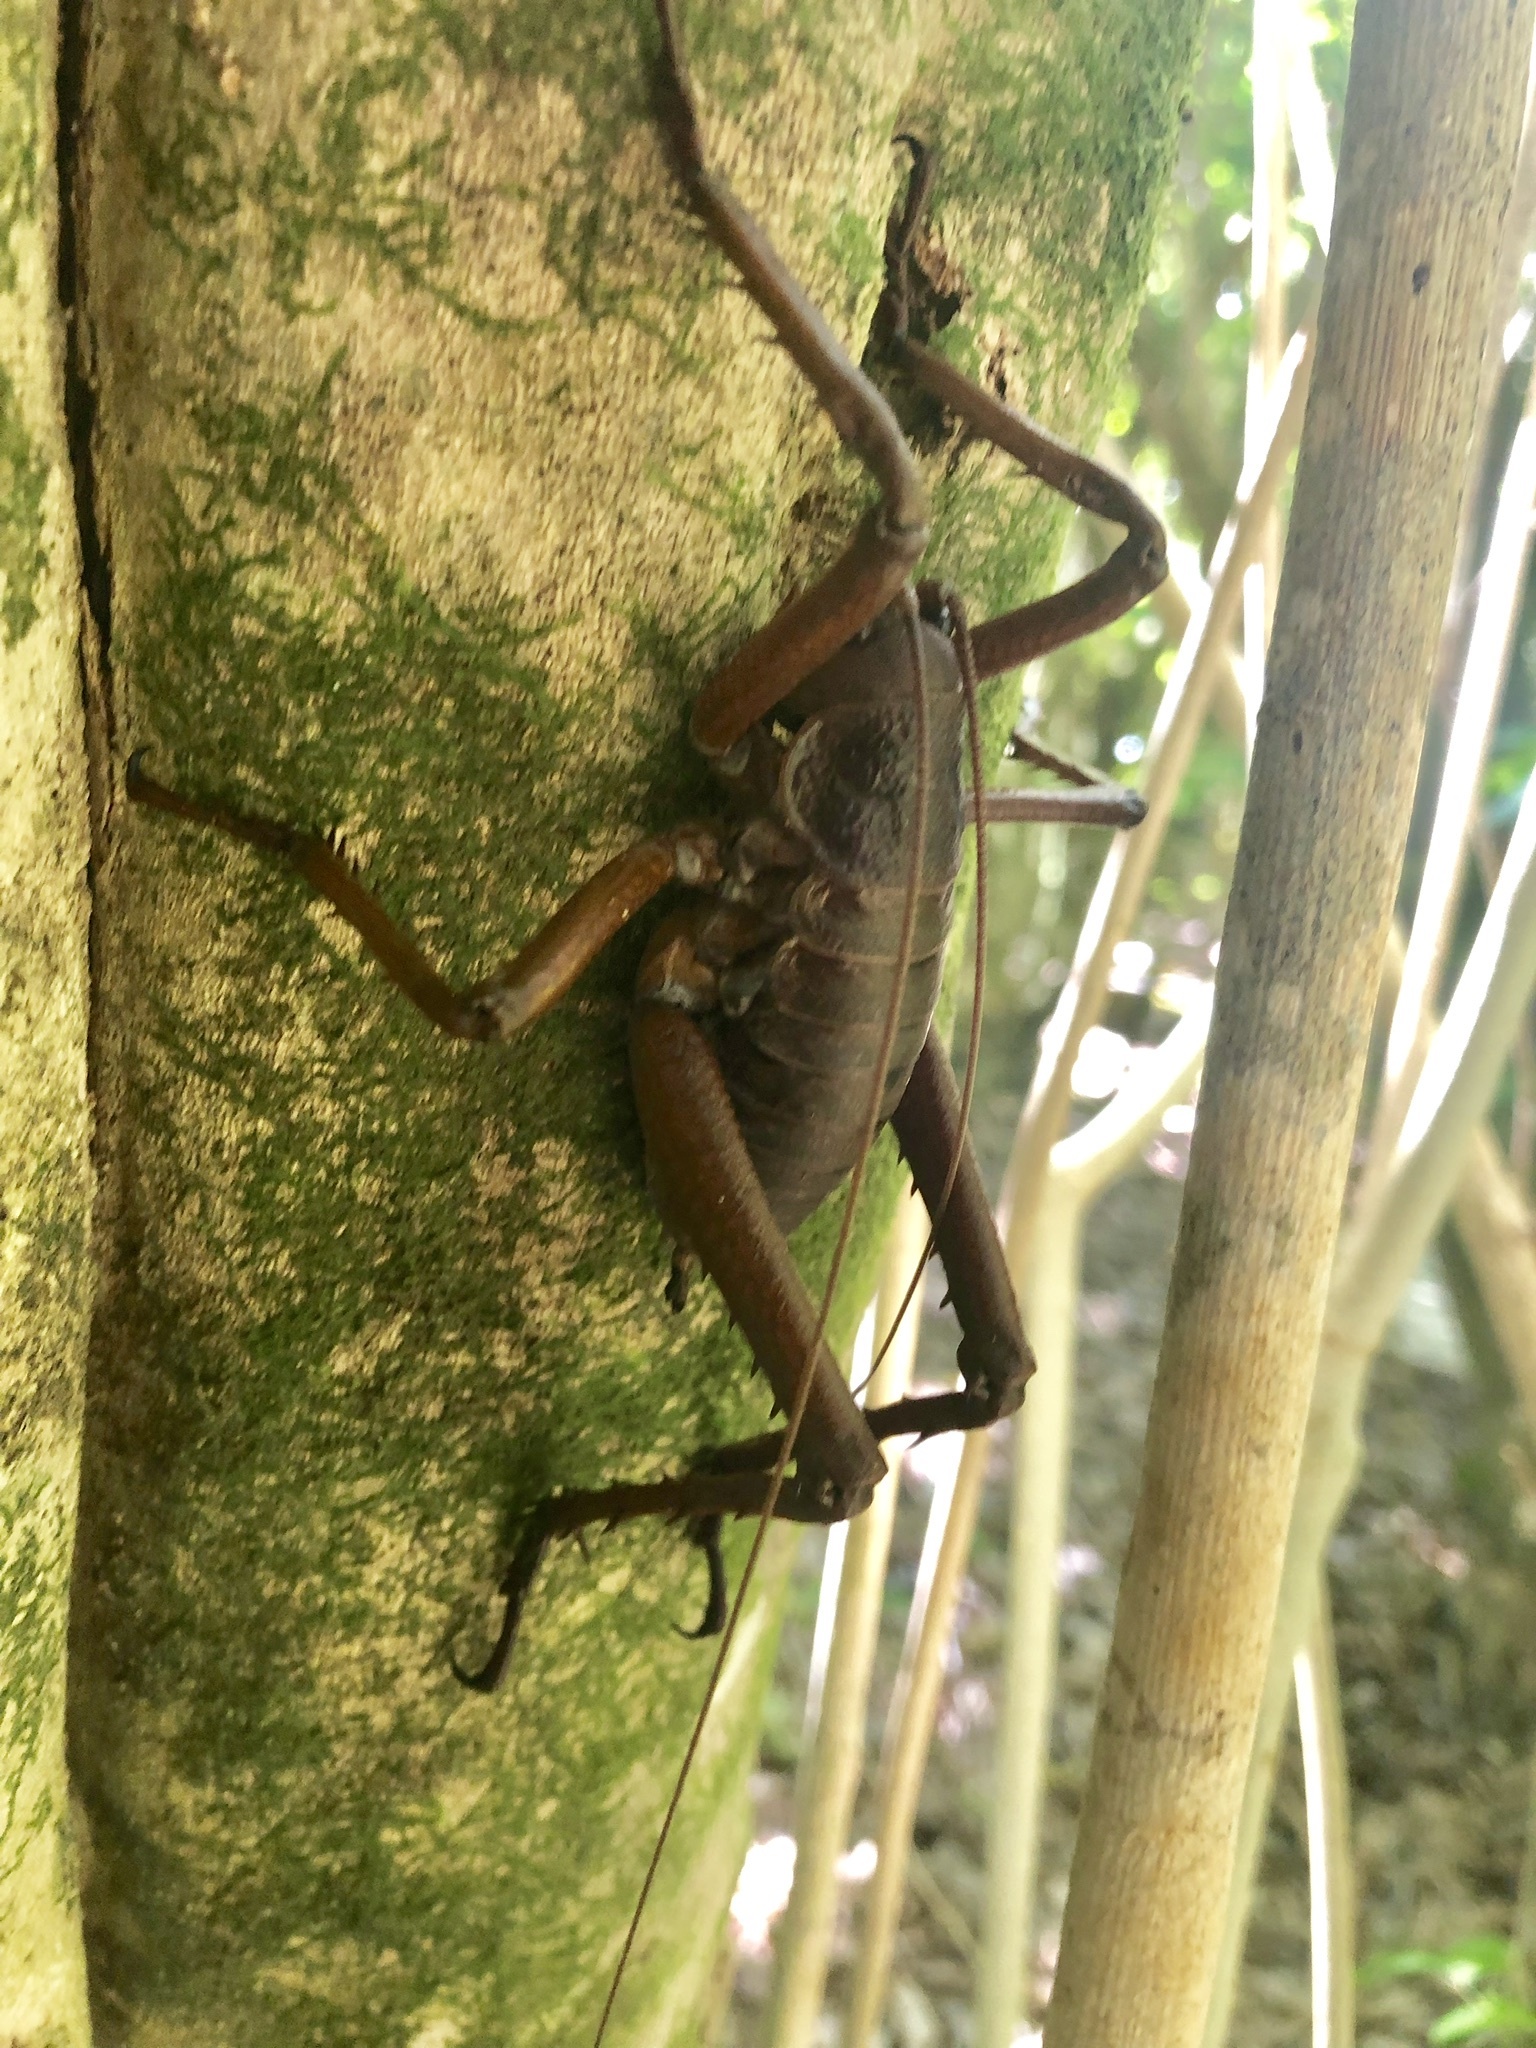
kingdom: Animalia
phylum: Arthropoda
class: Insecta
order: Orthoptera
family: Anostostomatidae
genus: Deinacrida
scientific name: Deinacrida heteracantha
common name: Wetapunga
